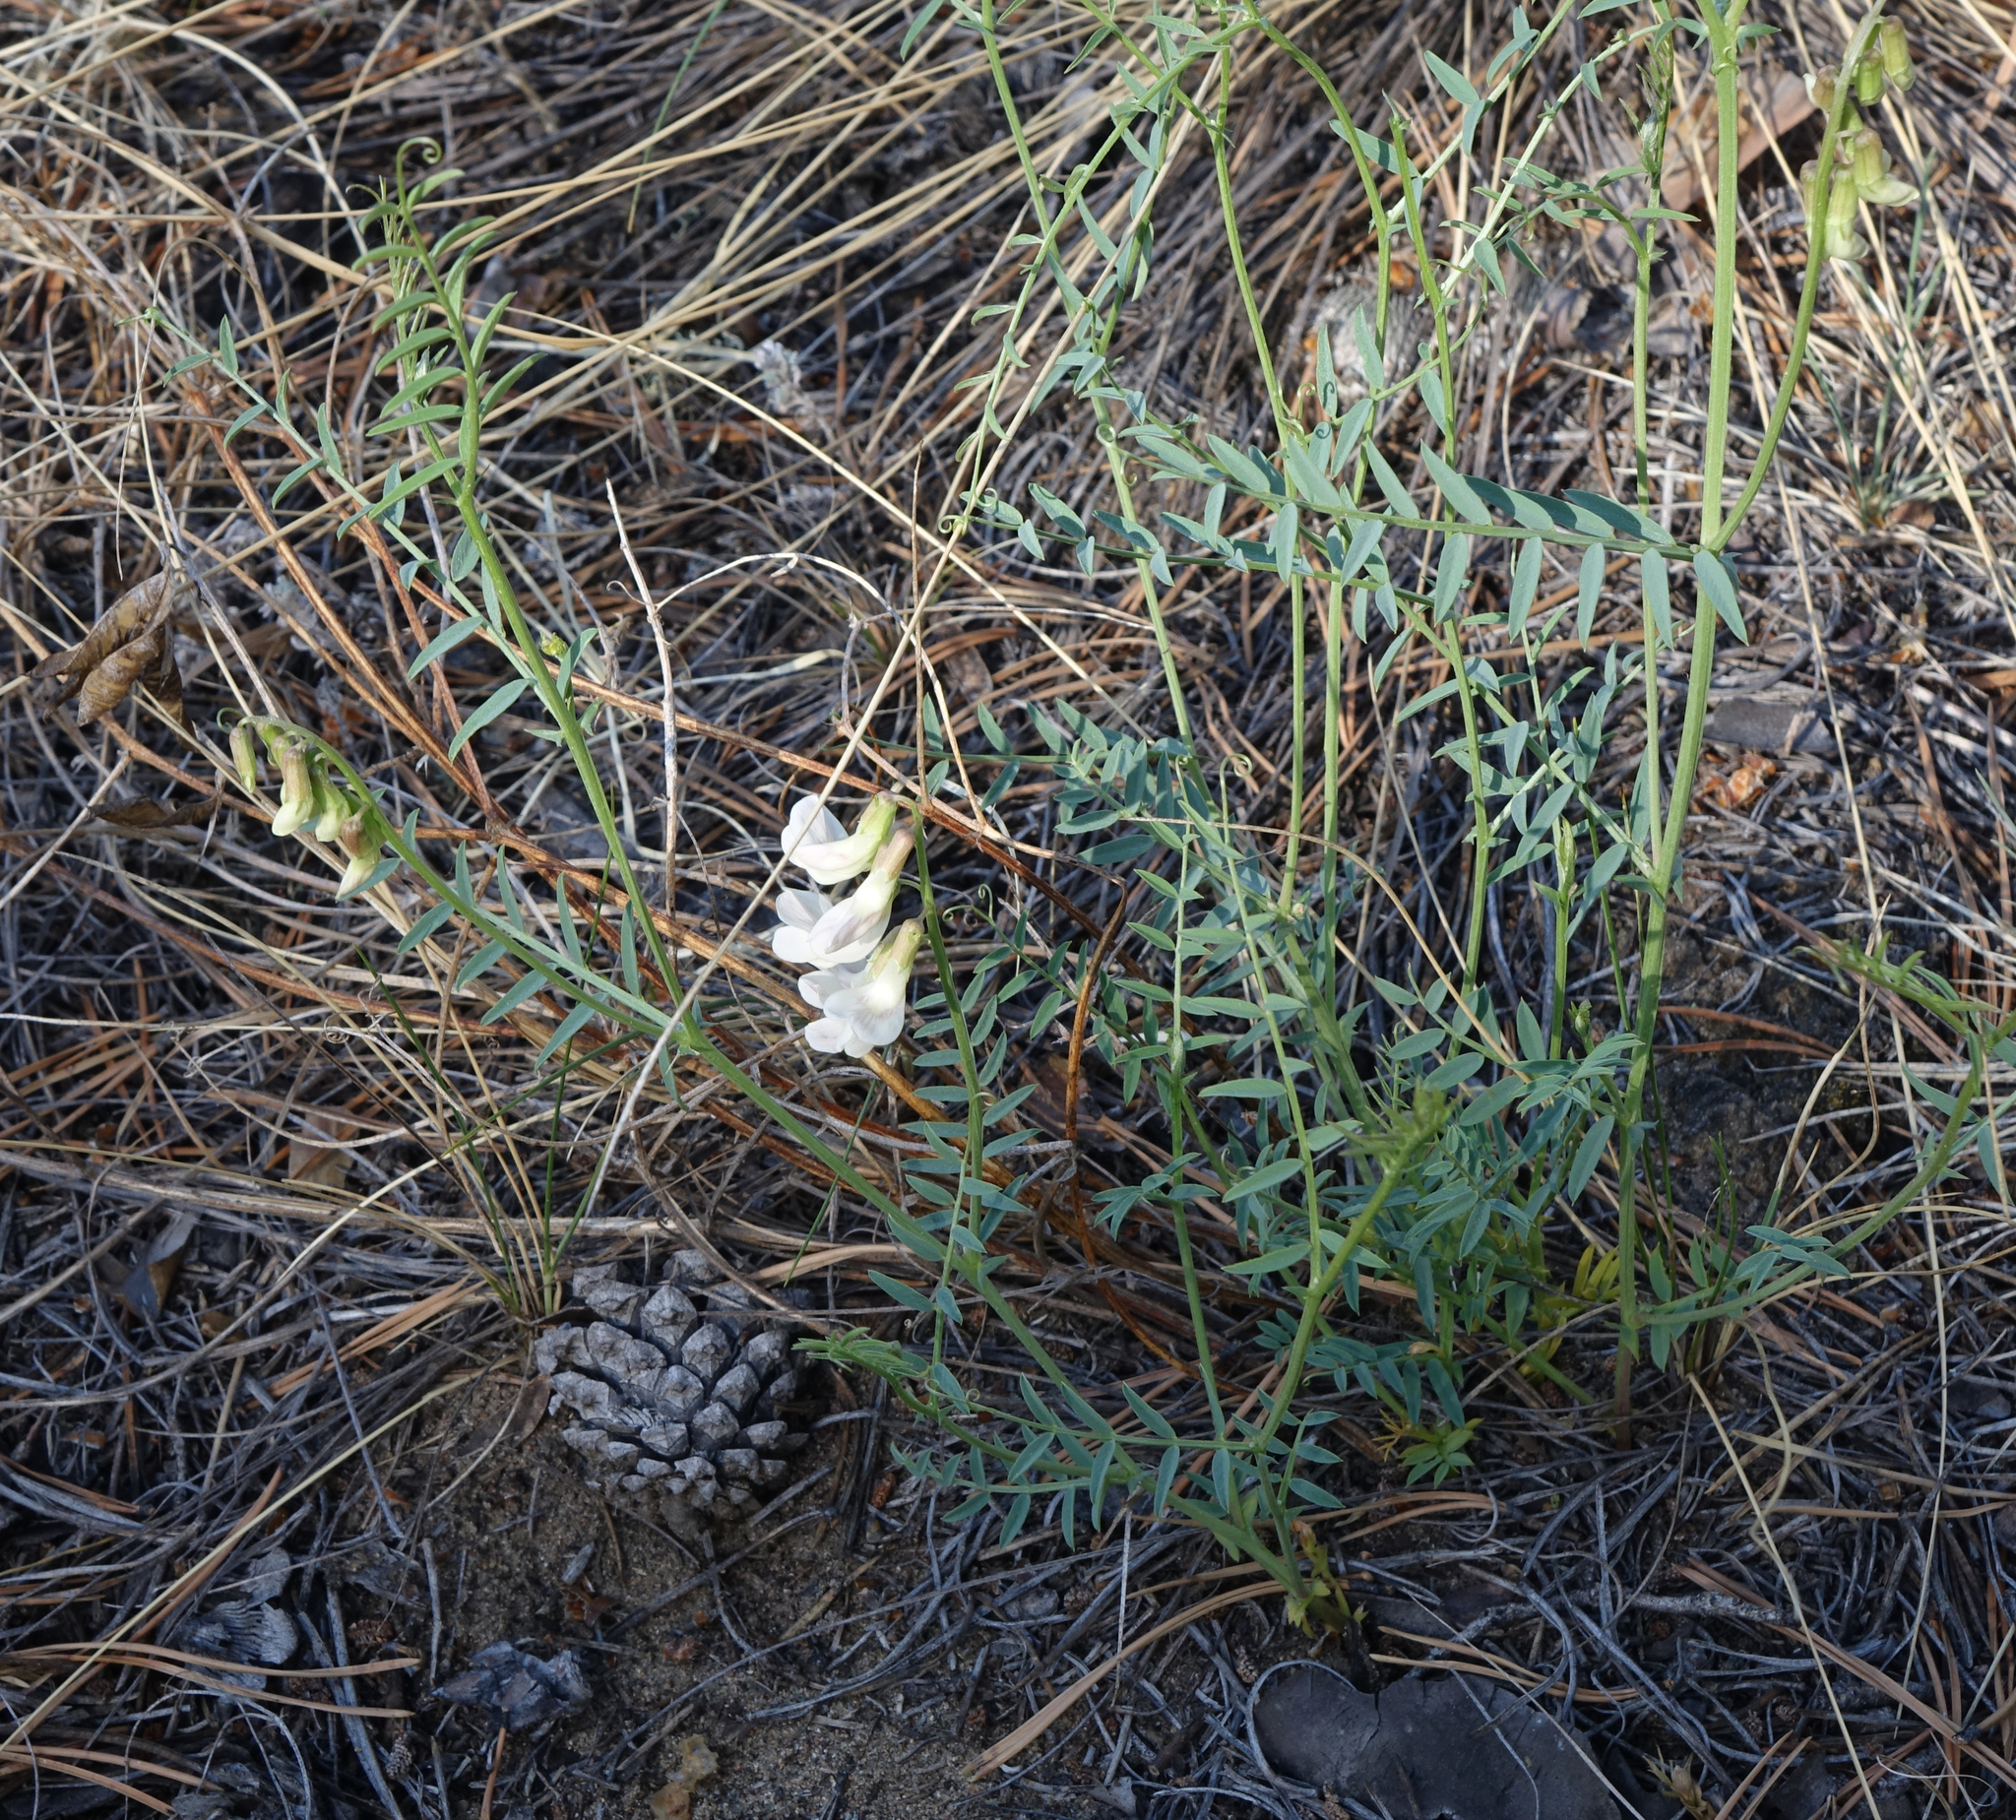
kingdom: Plantae
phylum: Tracheophyta
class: Magnoliopsida
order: Fabales
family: Fabaceae
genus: Vicia
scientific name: Vicia costata
